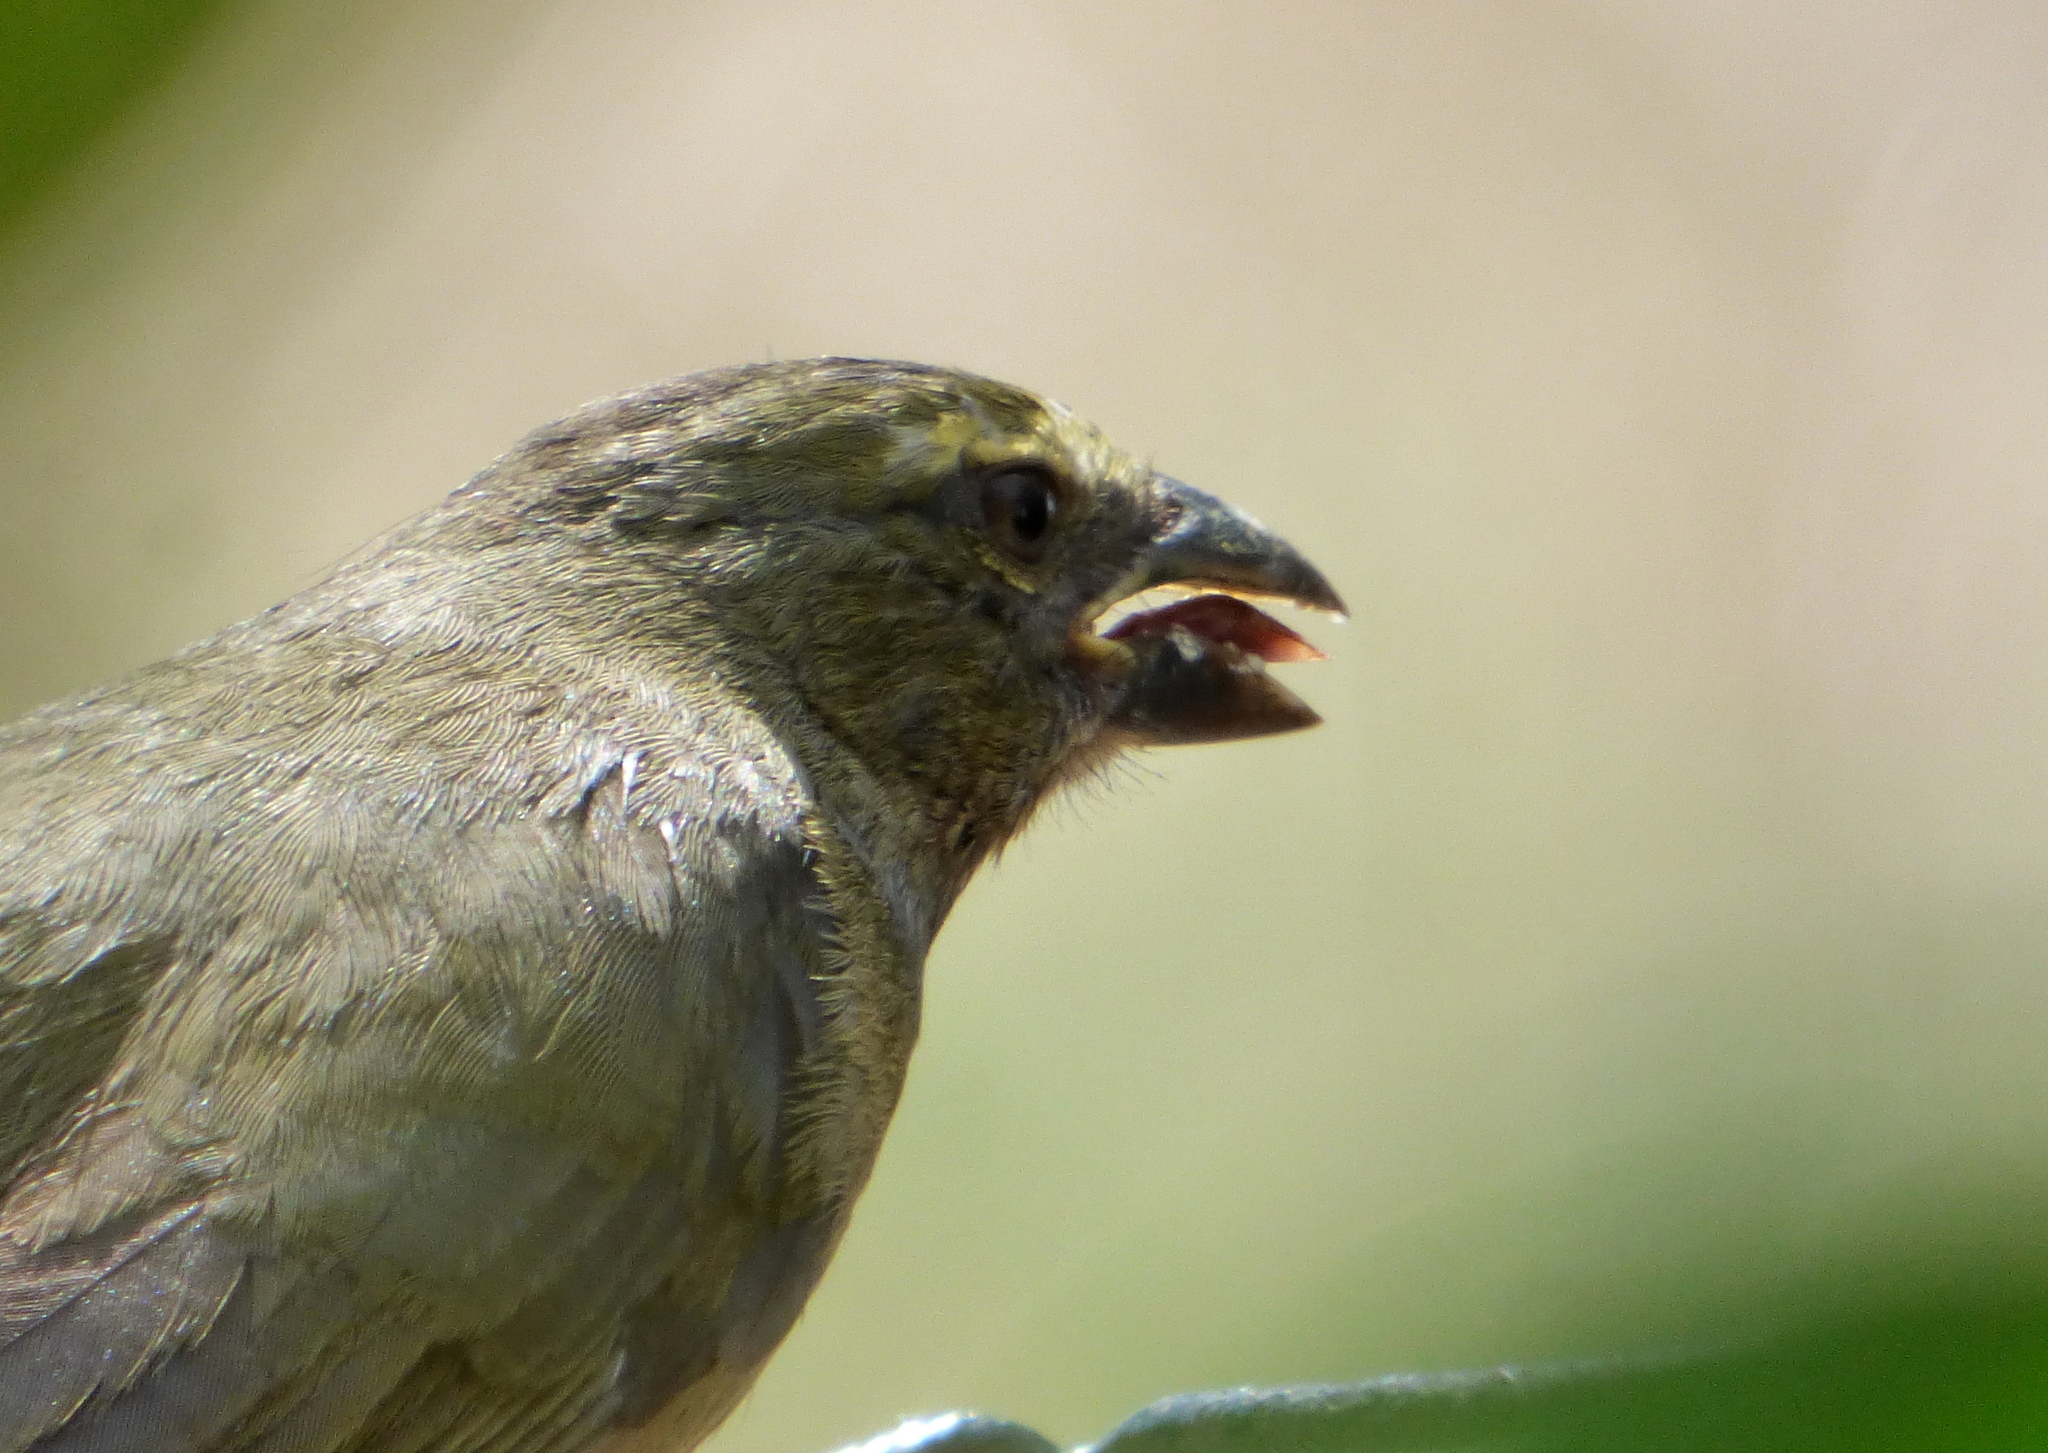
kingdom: Animalia
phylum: Chordata
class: Aves
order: Passeriformes
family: Thraupidae
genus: Saltator
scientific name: Saltator coerulescens
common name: Grayish saltator
